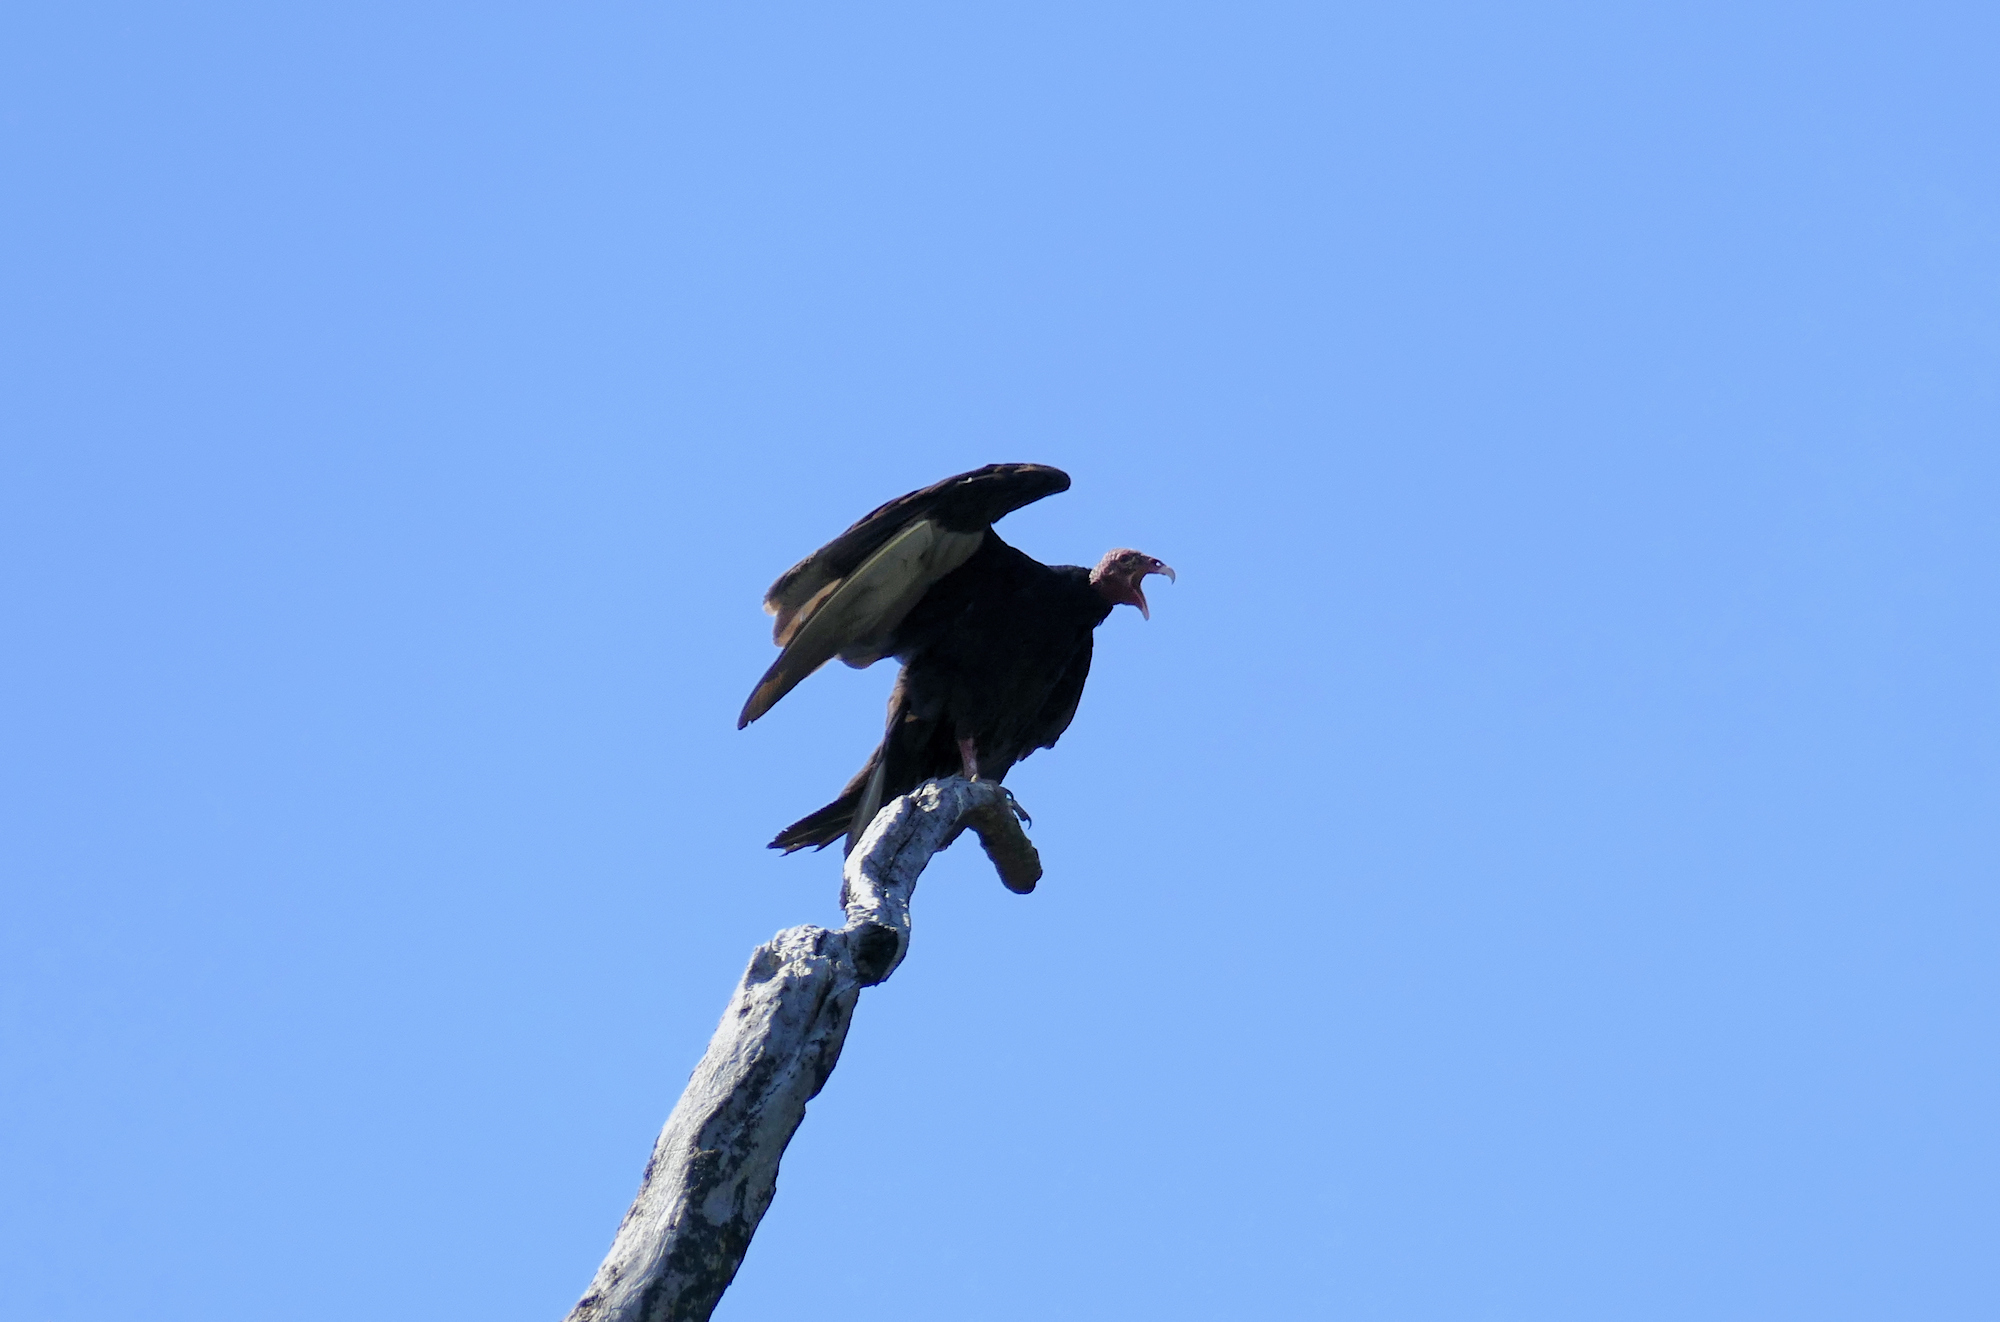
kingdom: Animalia
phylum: Chordata
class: Aves
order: Accipitriformes
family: Cathartidae
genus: Cathartes
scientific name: Cathartes aura
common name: Turkey vulture
